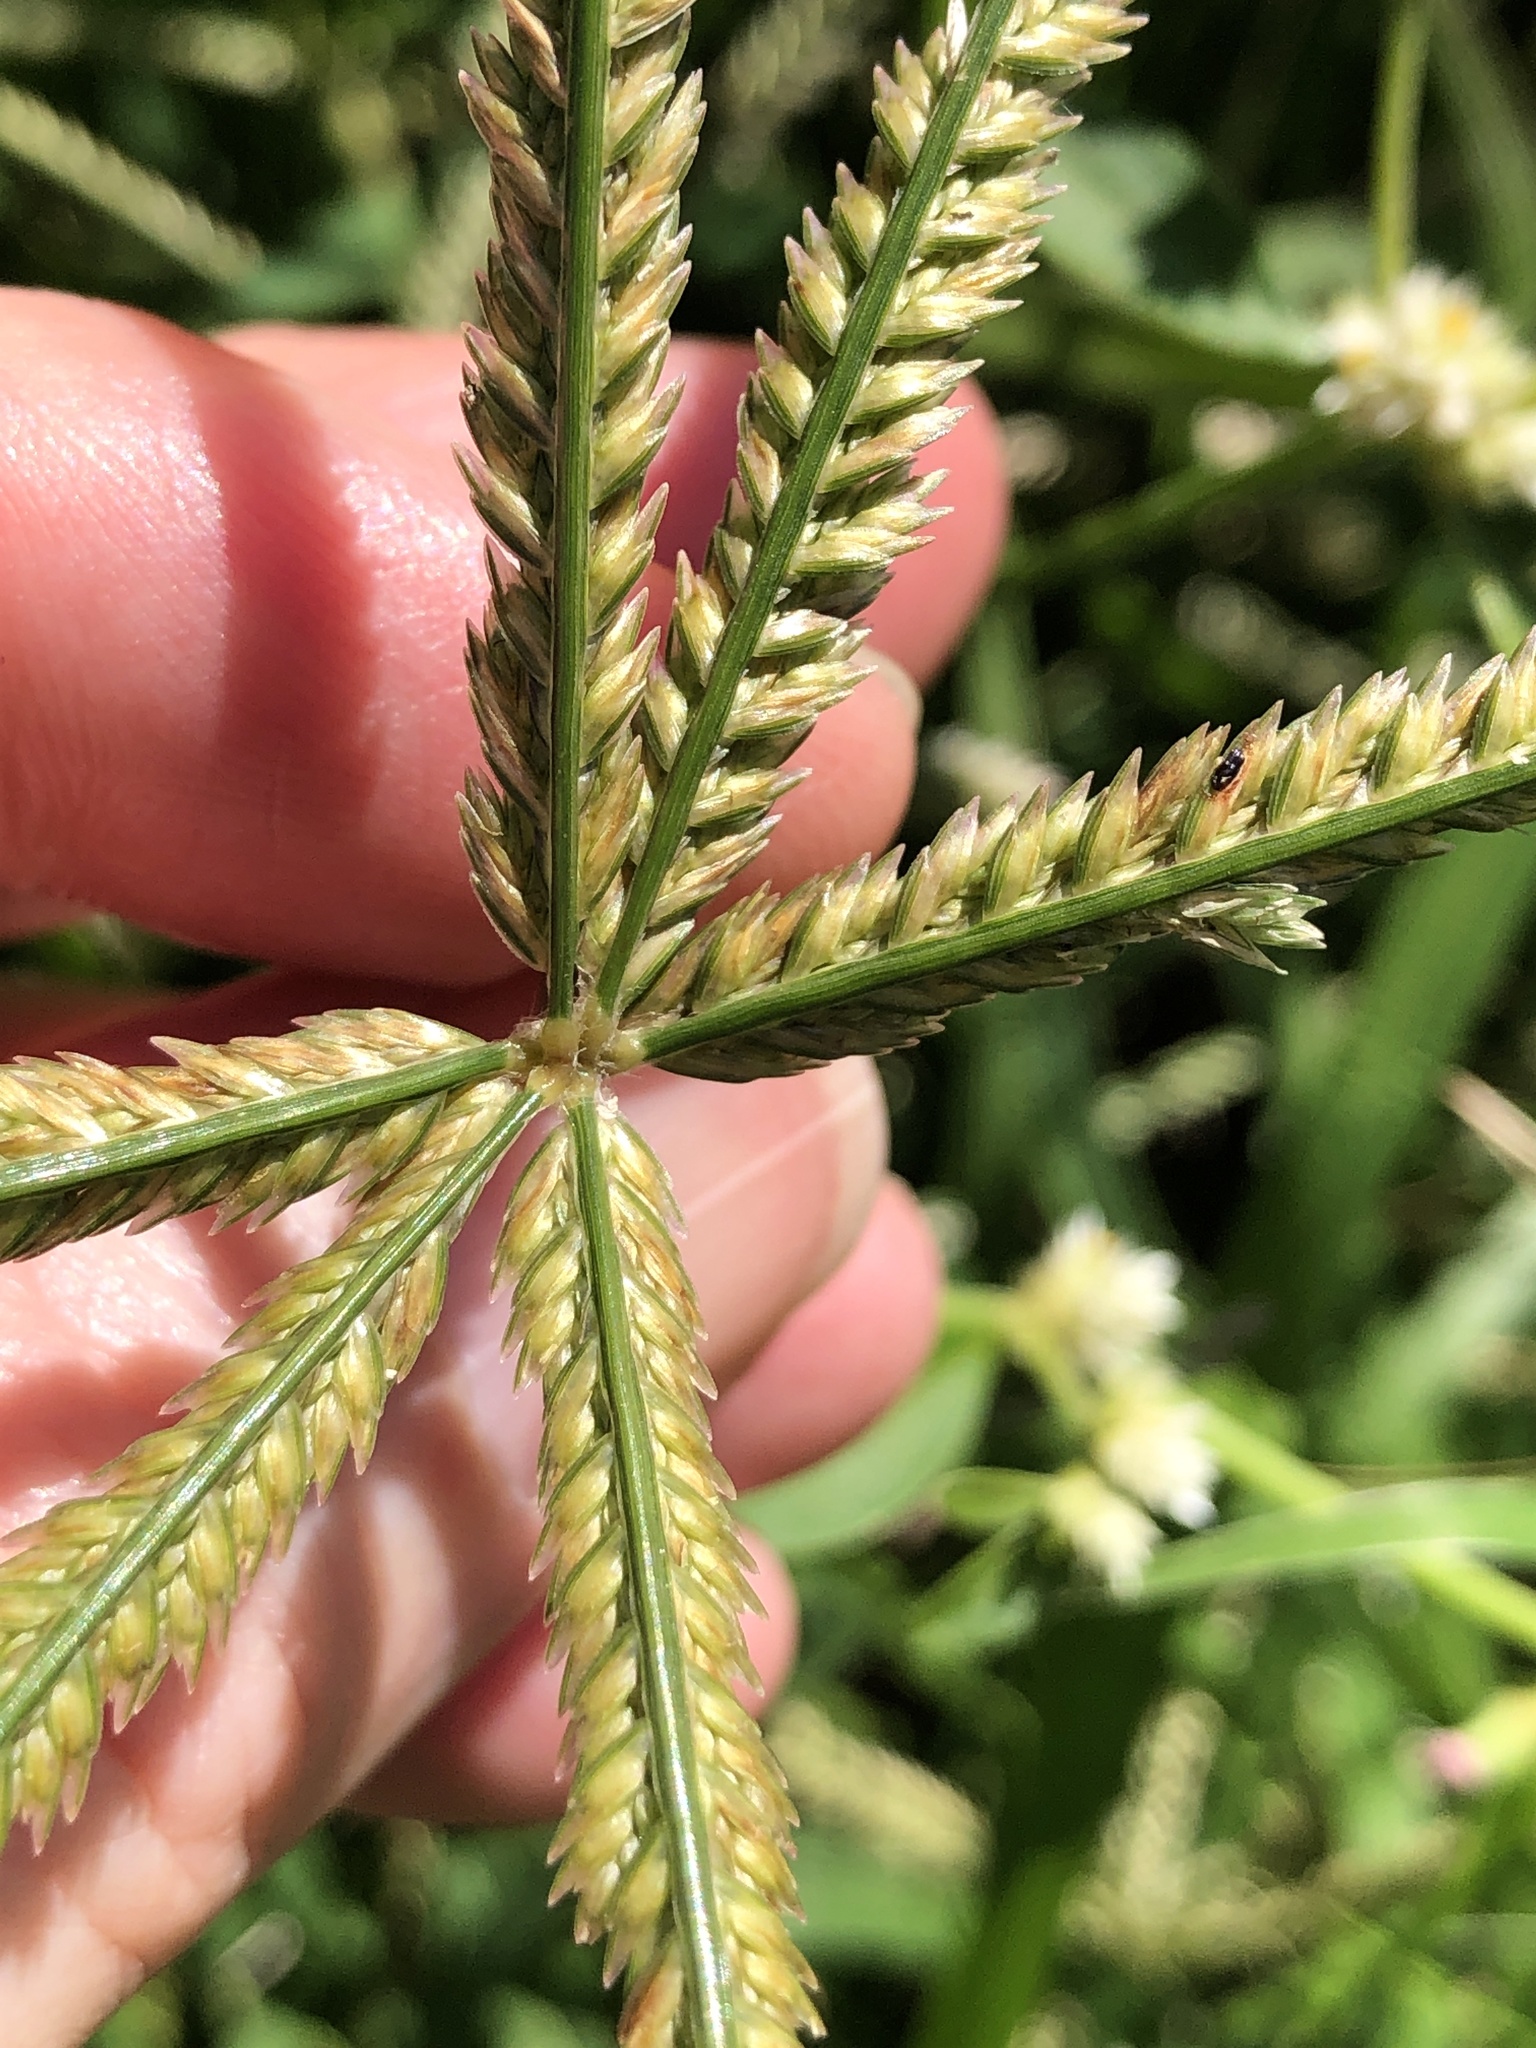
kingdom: Plantae
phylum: Tracheophyta
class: Liliopsida
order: Poales
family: Poaceae
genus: Eleusine
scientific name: Eleusine indica
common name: Yard-grass
